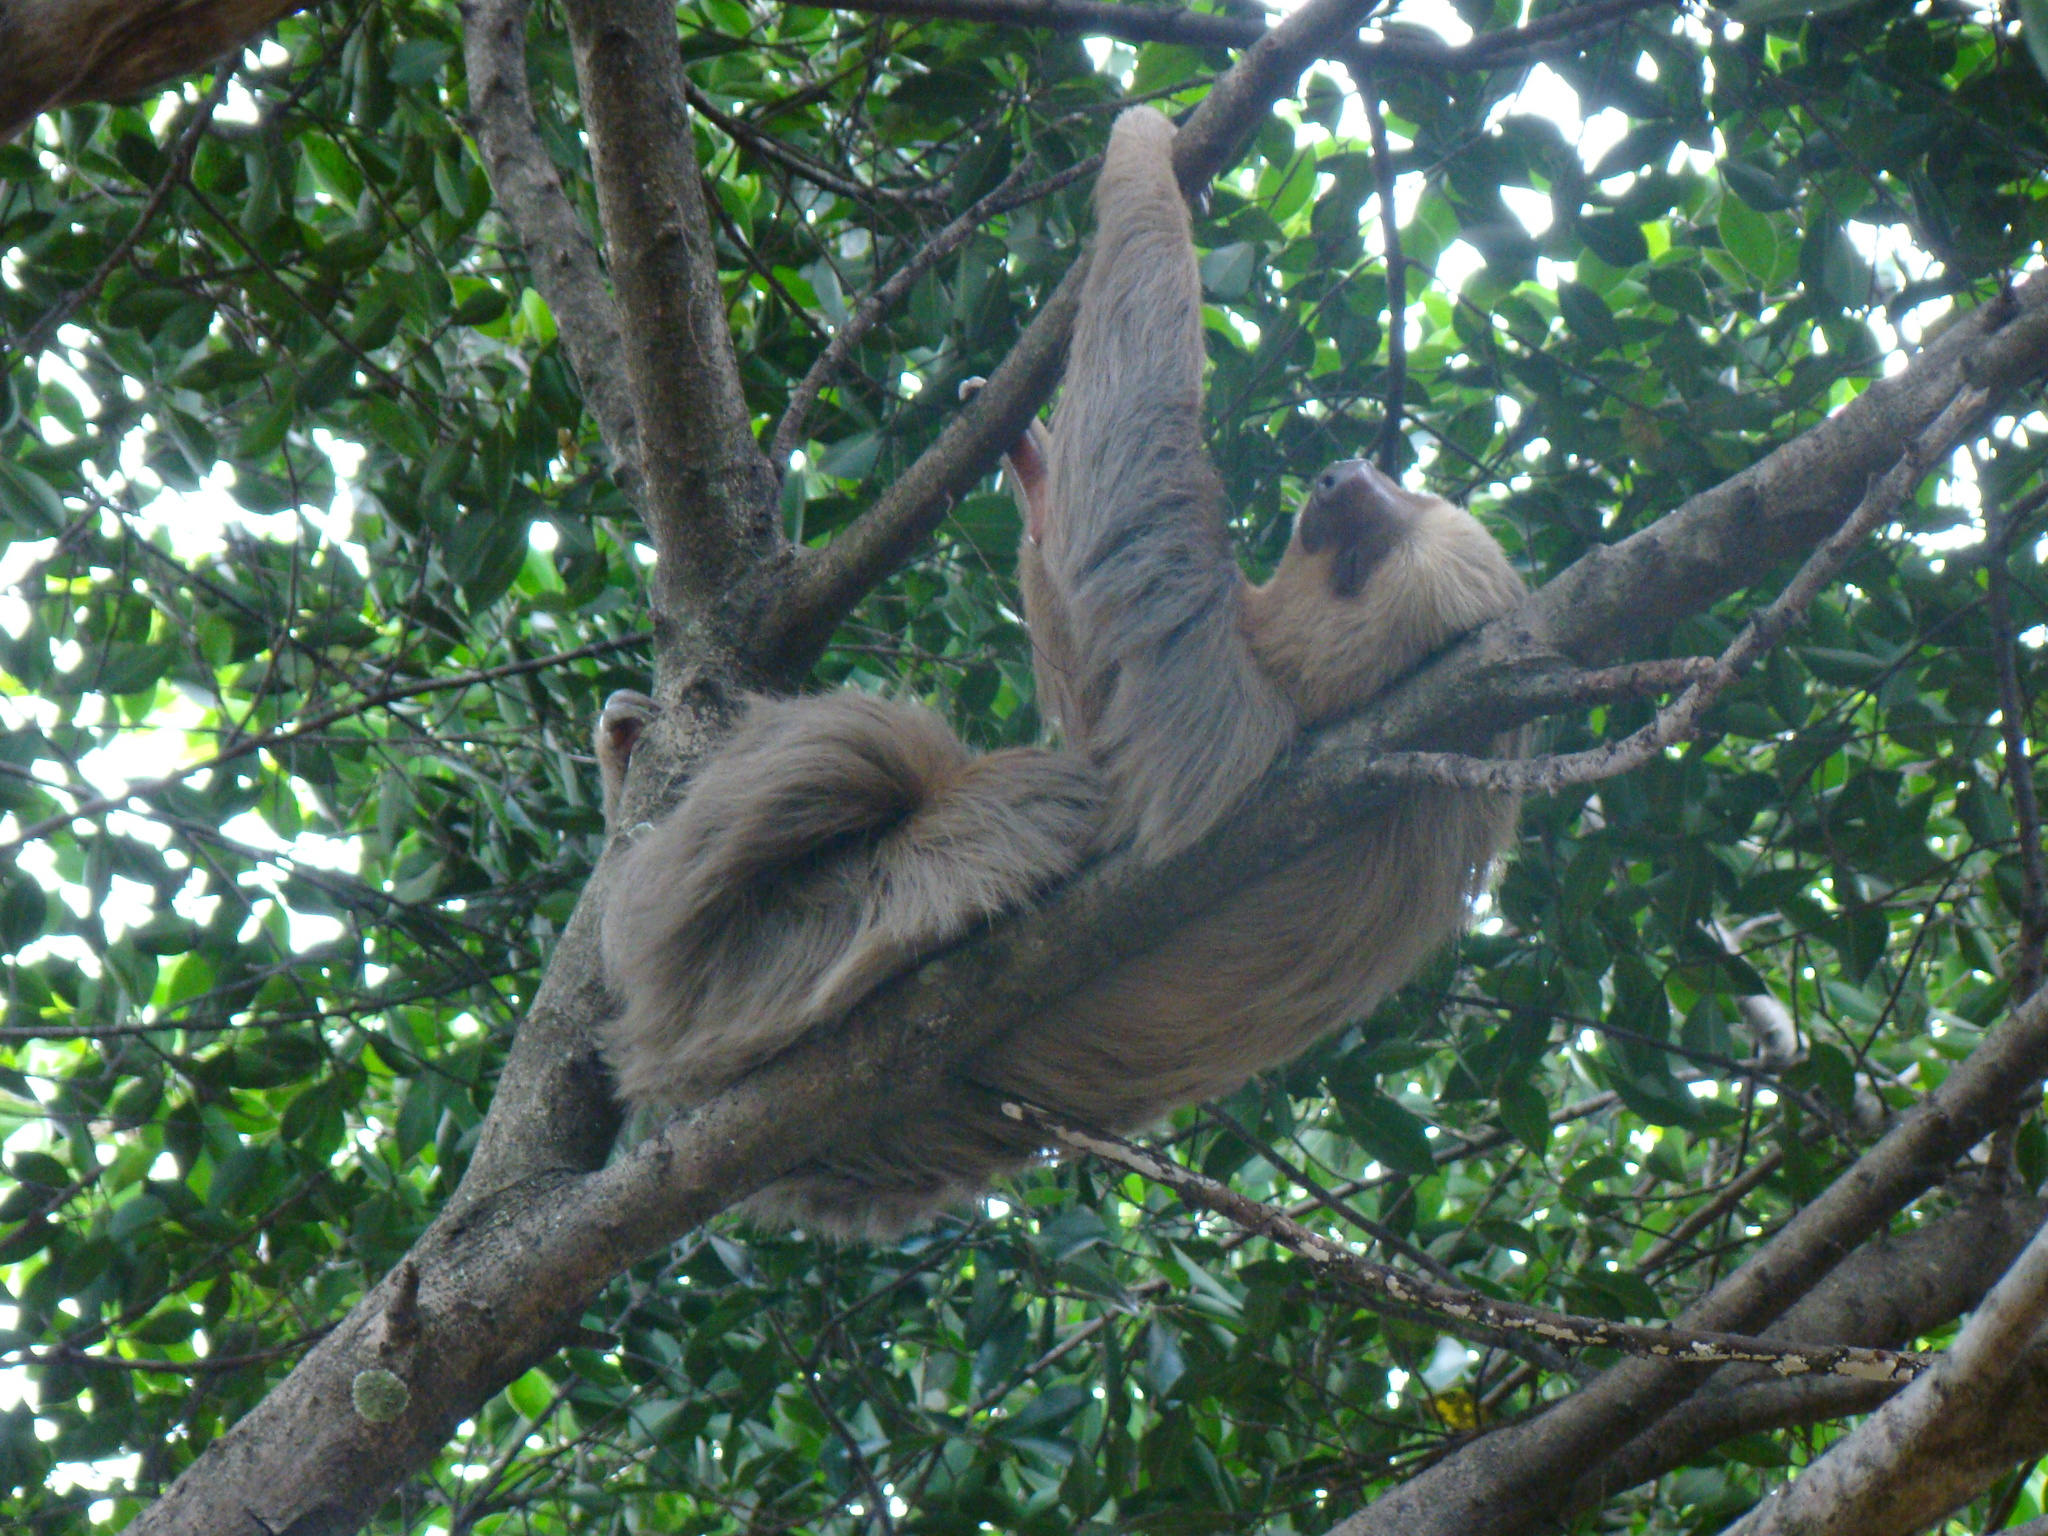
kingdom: Animalia
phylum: Chordata
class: Mammalia
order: Pilosa
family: Megalonychidae
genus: Choloepus
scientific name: Choloepus hoffmanni
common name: Hoffmann's two-toed sloth
